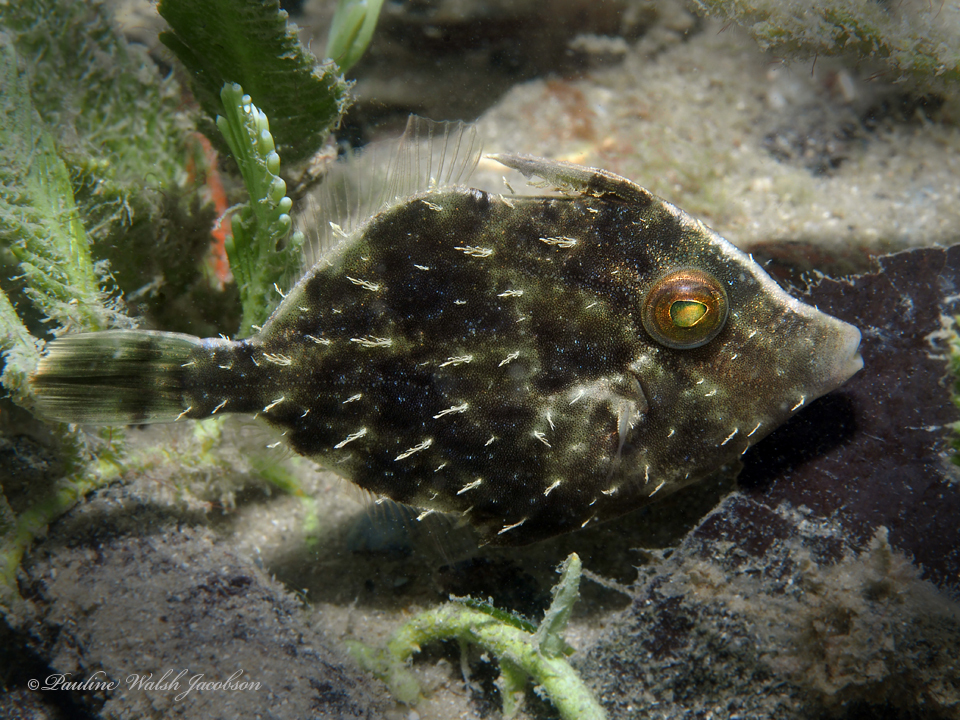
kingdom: Animalia
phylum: Chordata
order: Tetraodontiformes
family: Monacanthidae
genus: Stephanolepis
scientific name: Stephanolepis hispidus
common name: Planehead filefish
